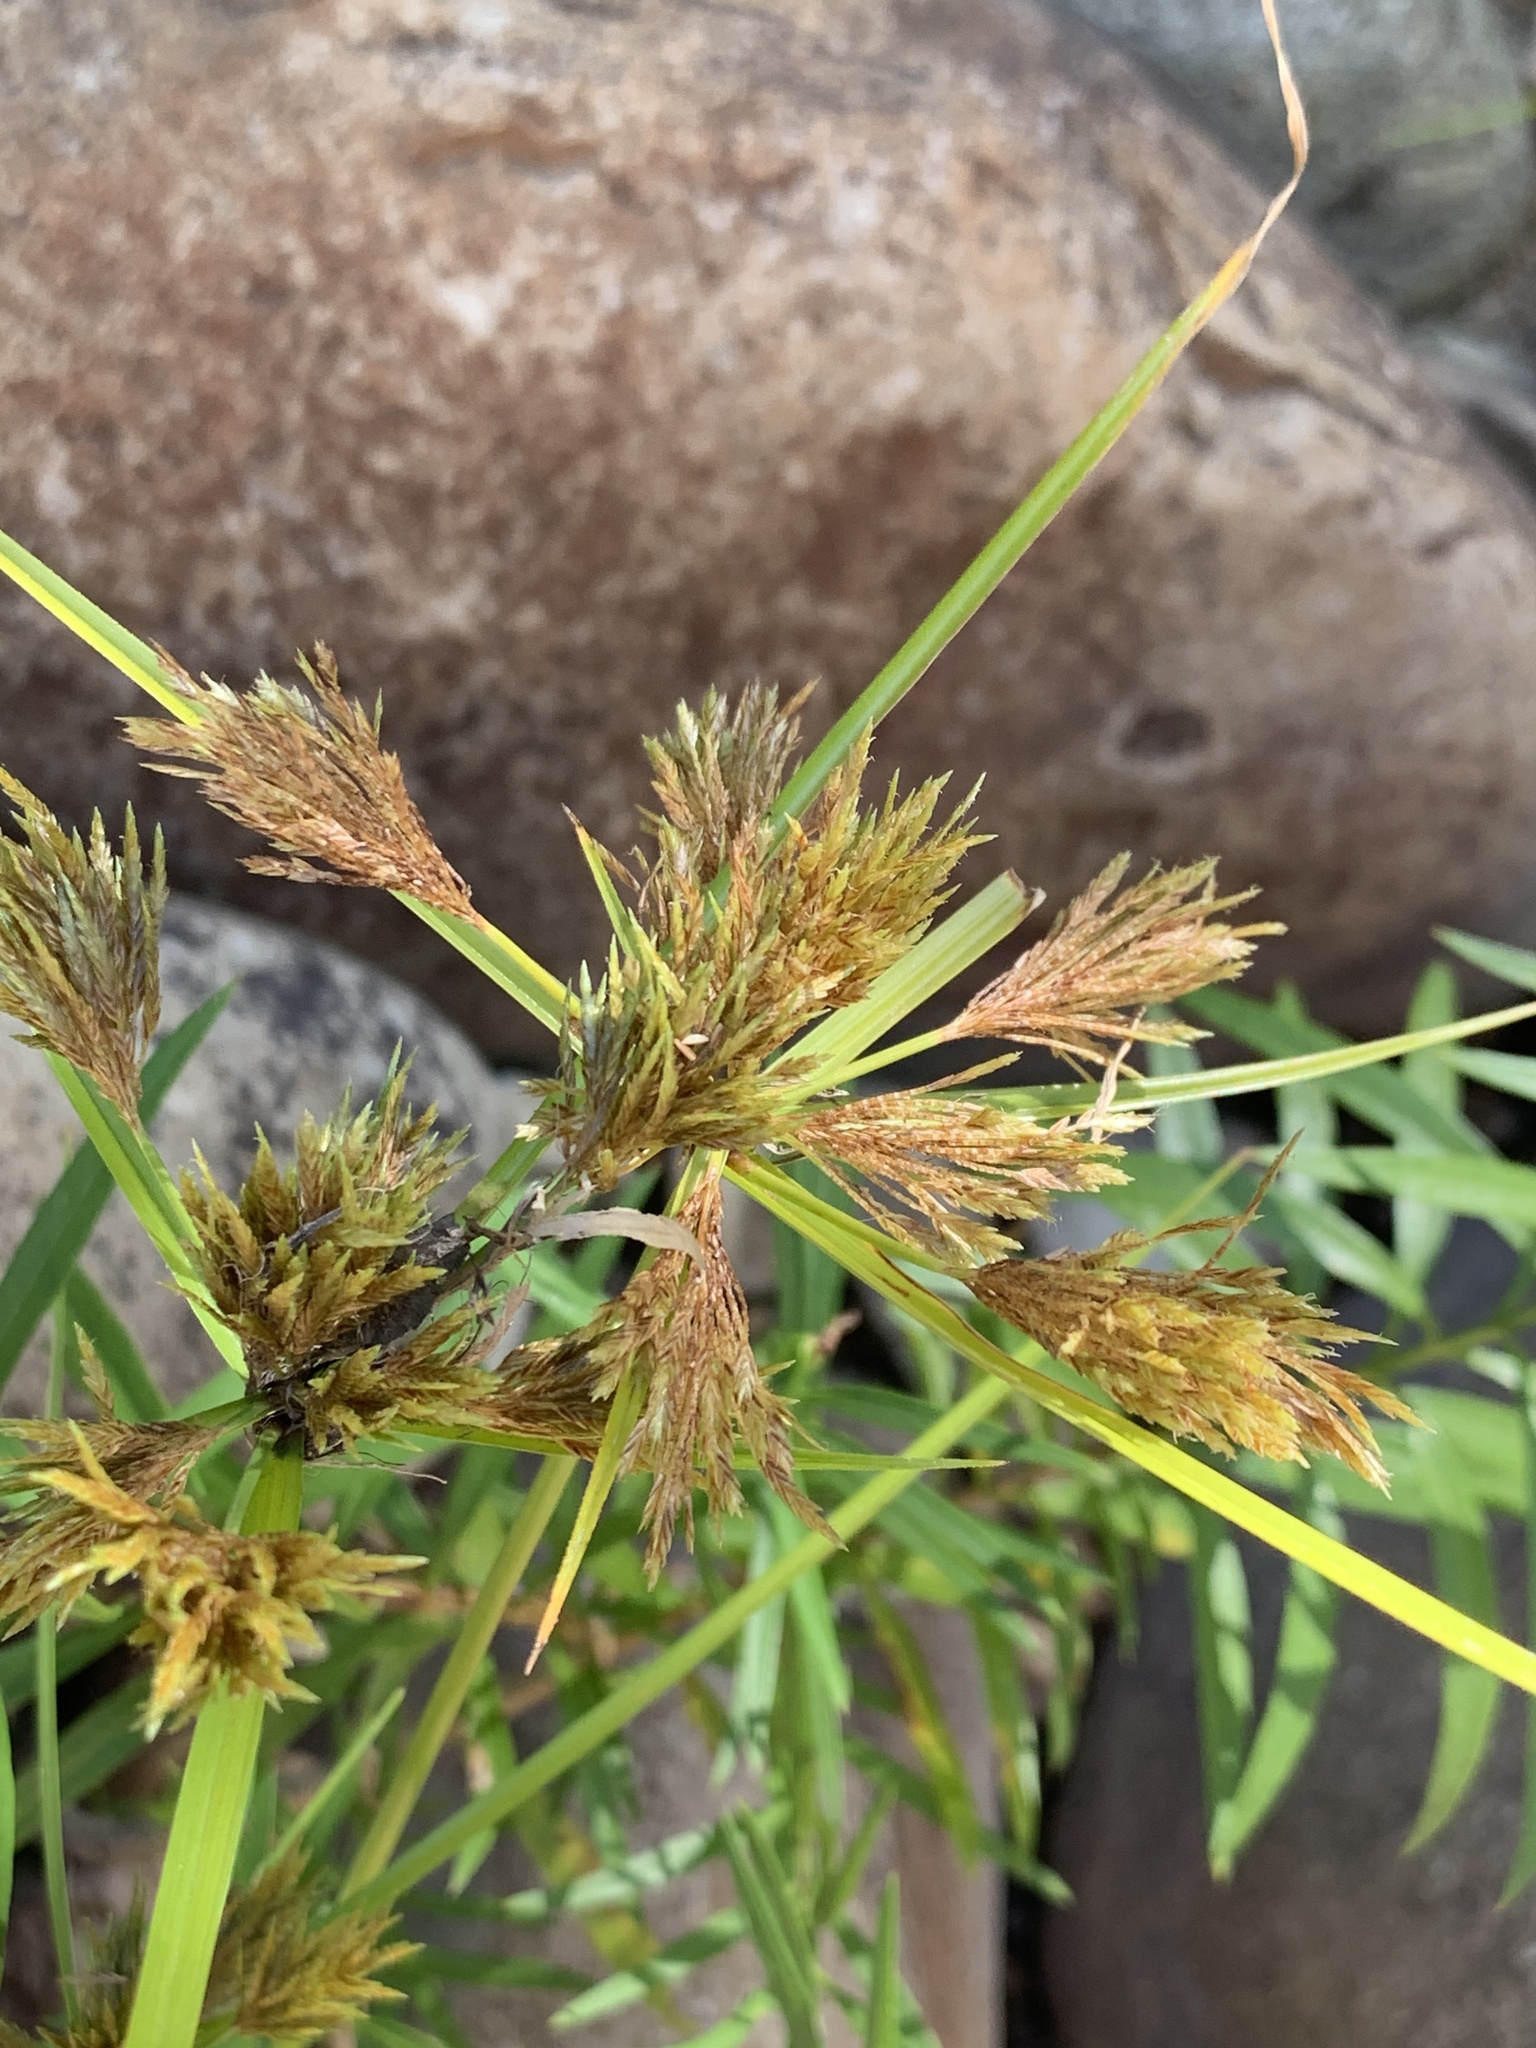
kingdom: Plantae
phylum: Tracheophyta
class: Liliopsida
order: Poales
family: Cyperaceae
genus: Cyperus
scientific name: Cyperus polystachyos
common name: Bunchy flat sedge
